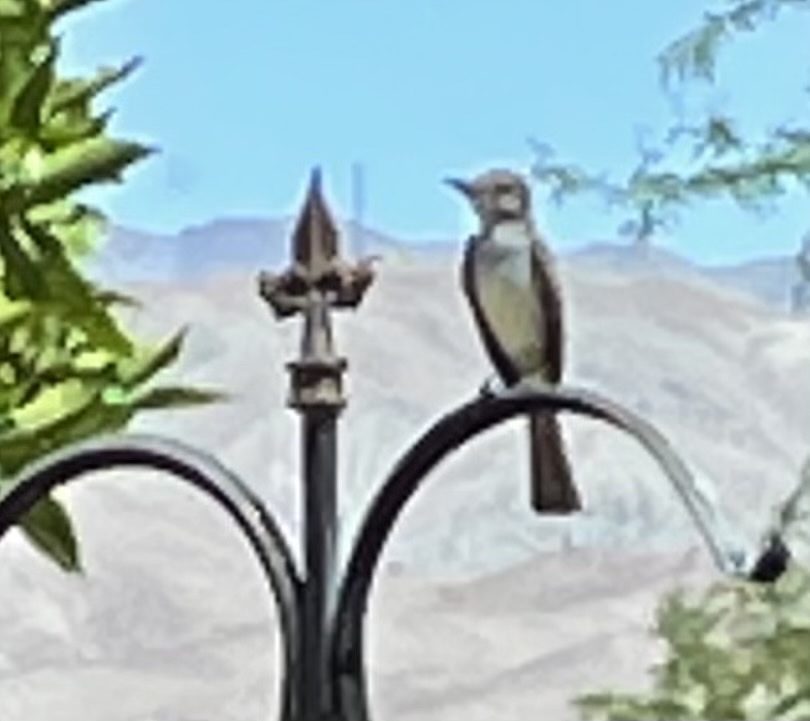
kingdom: Animalia
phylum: Chordata
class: Aves
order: Passeriformes
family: Tyrannidae
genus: Myiarchus
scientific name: Myiarchus cinerascens
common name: Ash-throated flycatcher
